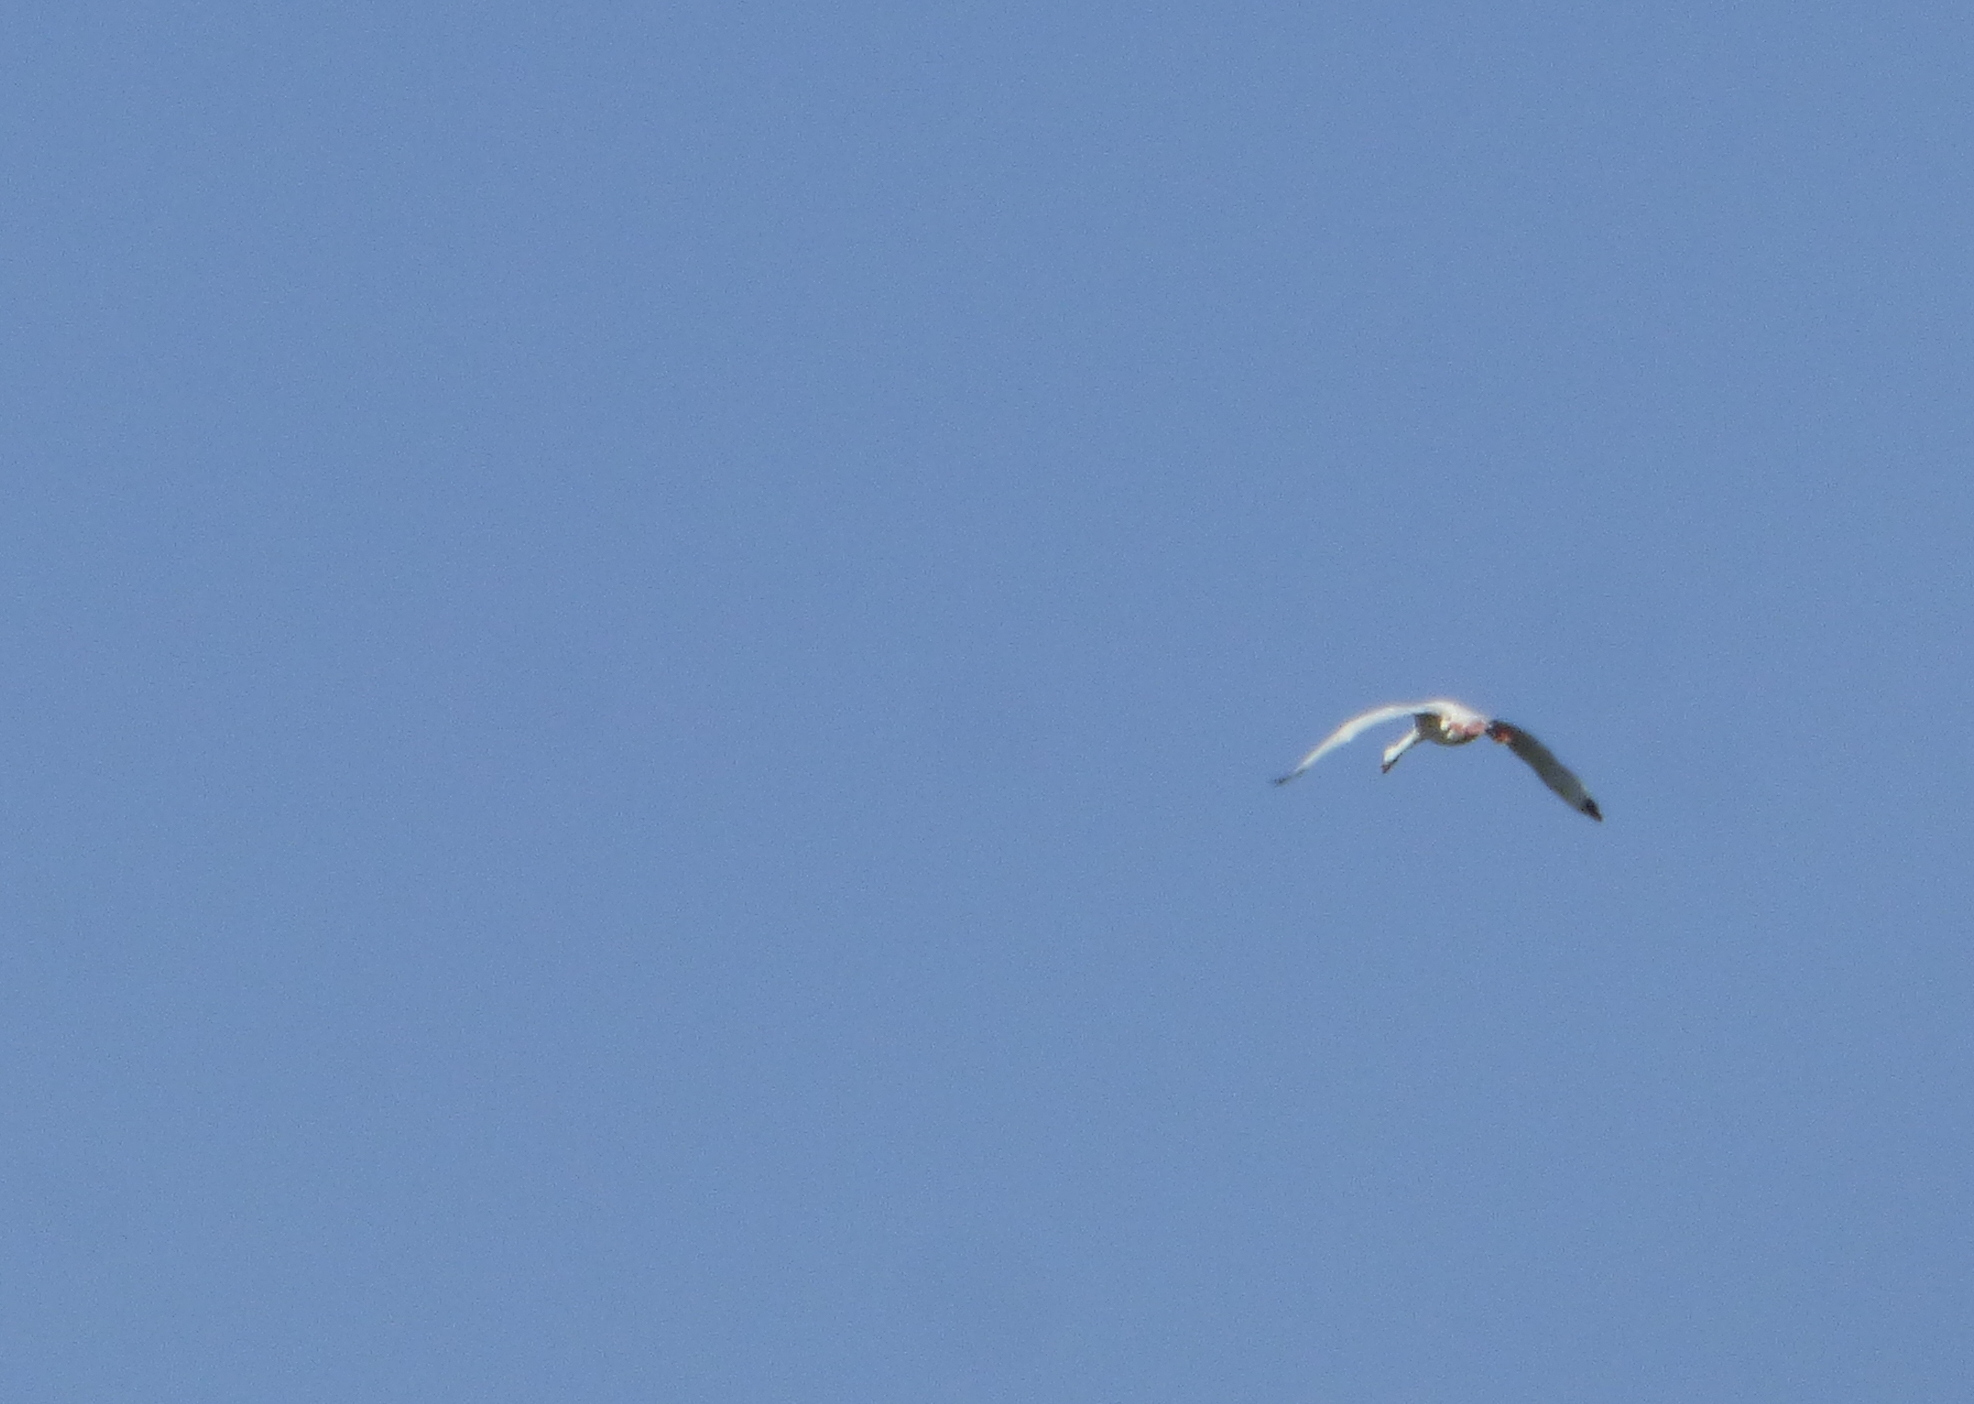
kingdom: Animalia
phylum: Chordata
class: Aves
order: Anseriformes
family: Anatidae
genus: Coscoroba
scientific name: Coscoroba coscoroba
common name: Coscoroba swan
